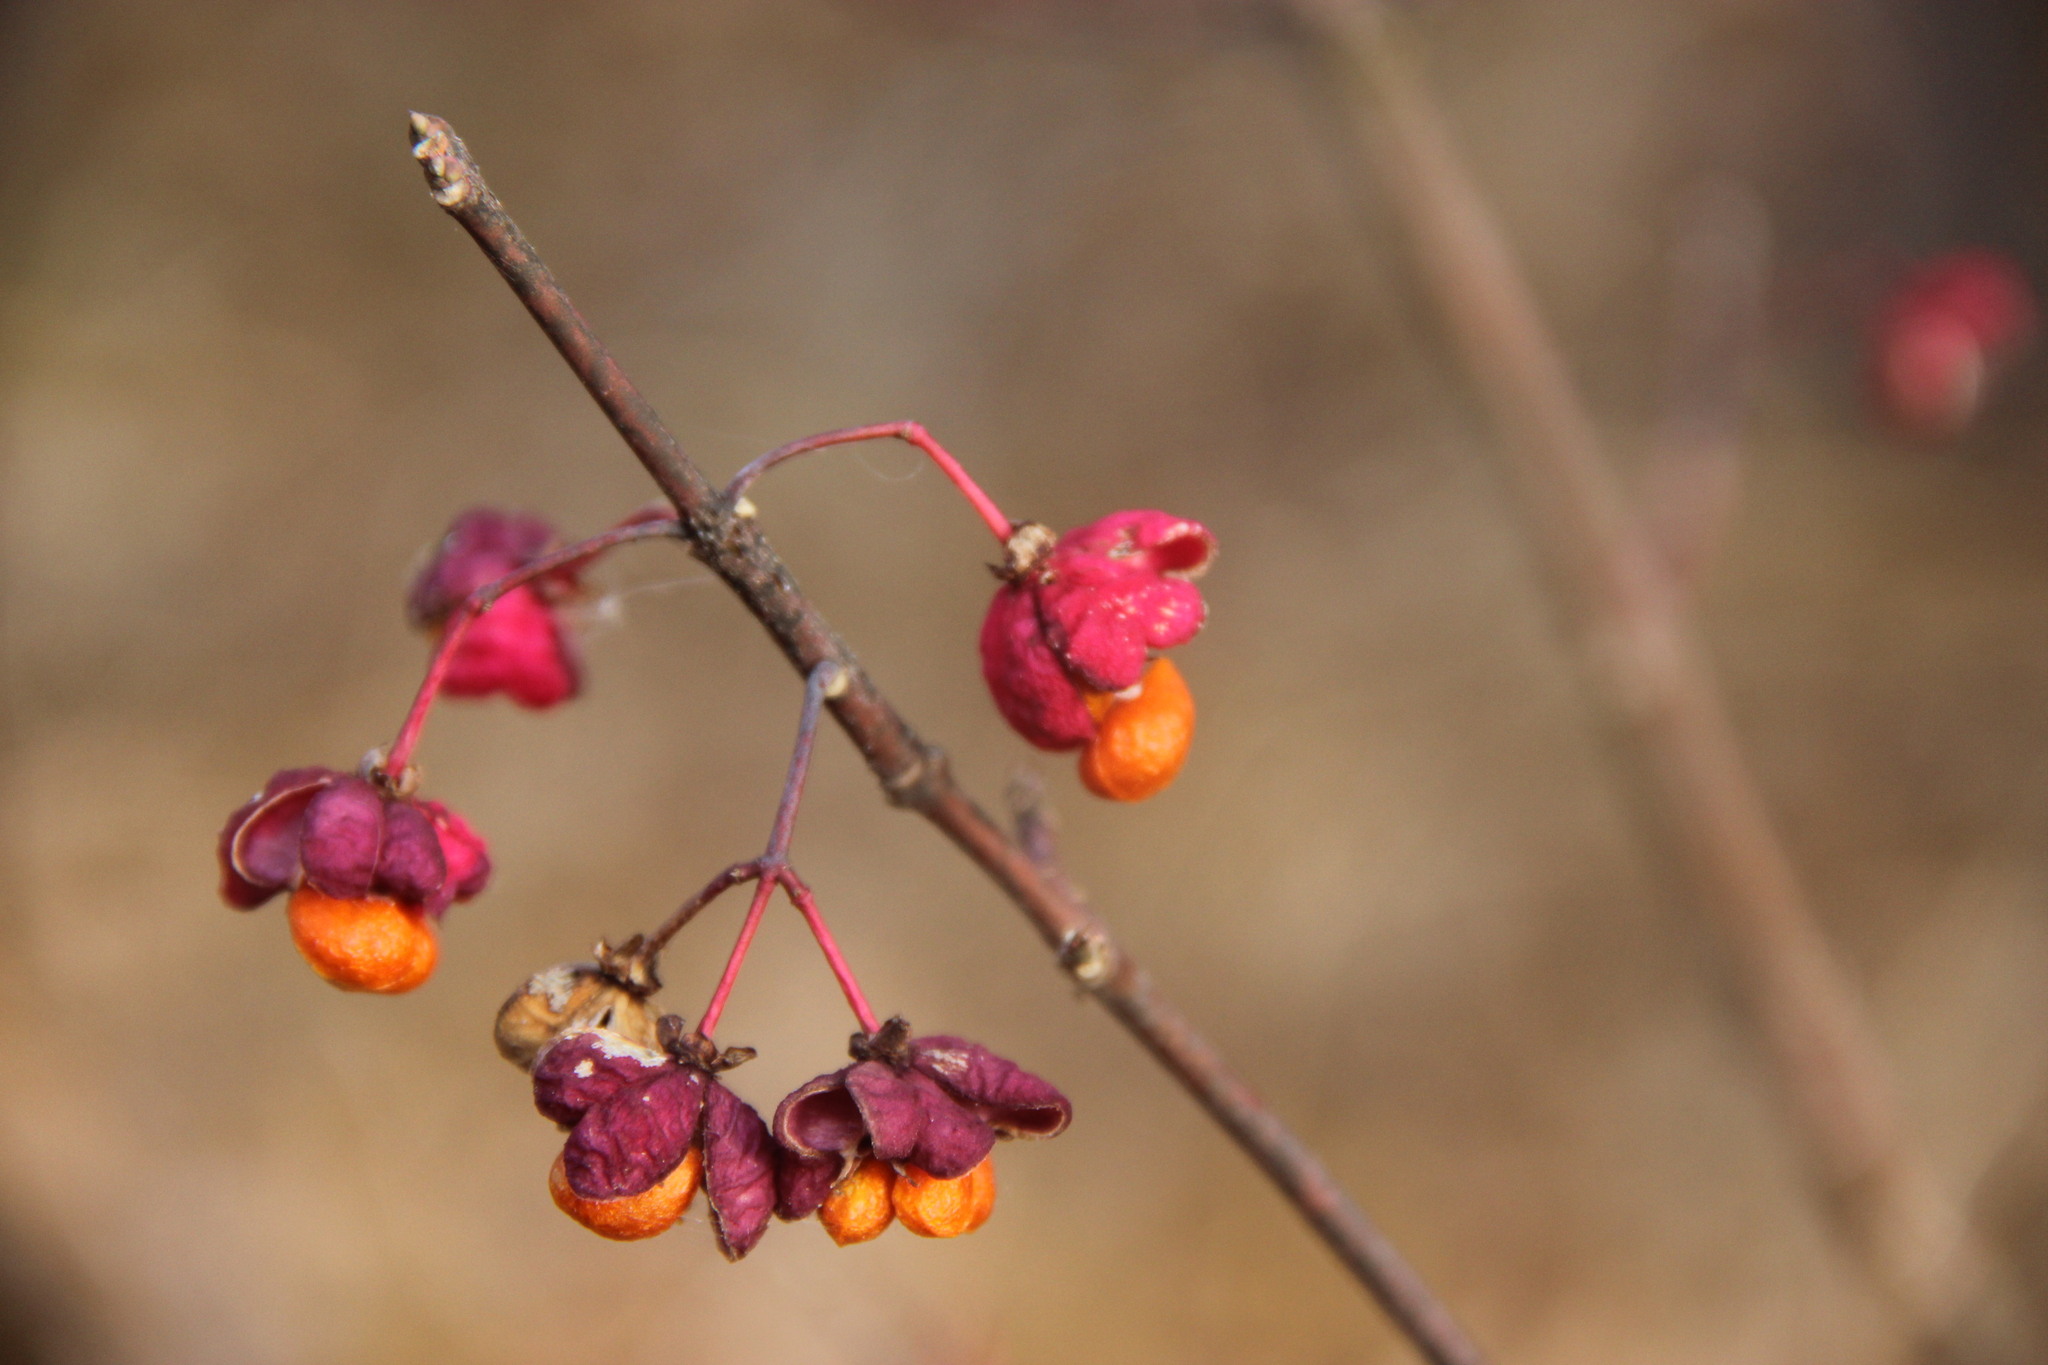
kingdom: Plantae
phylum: Tracheophyta
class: Magnoliopsida
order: Celastrales
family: Celastraceae
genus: Euonymus
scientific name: Euonymus europaeus
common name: Spindle
